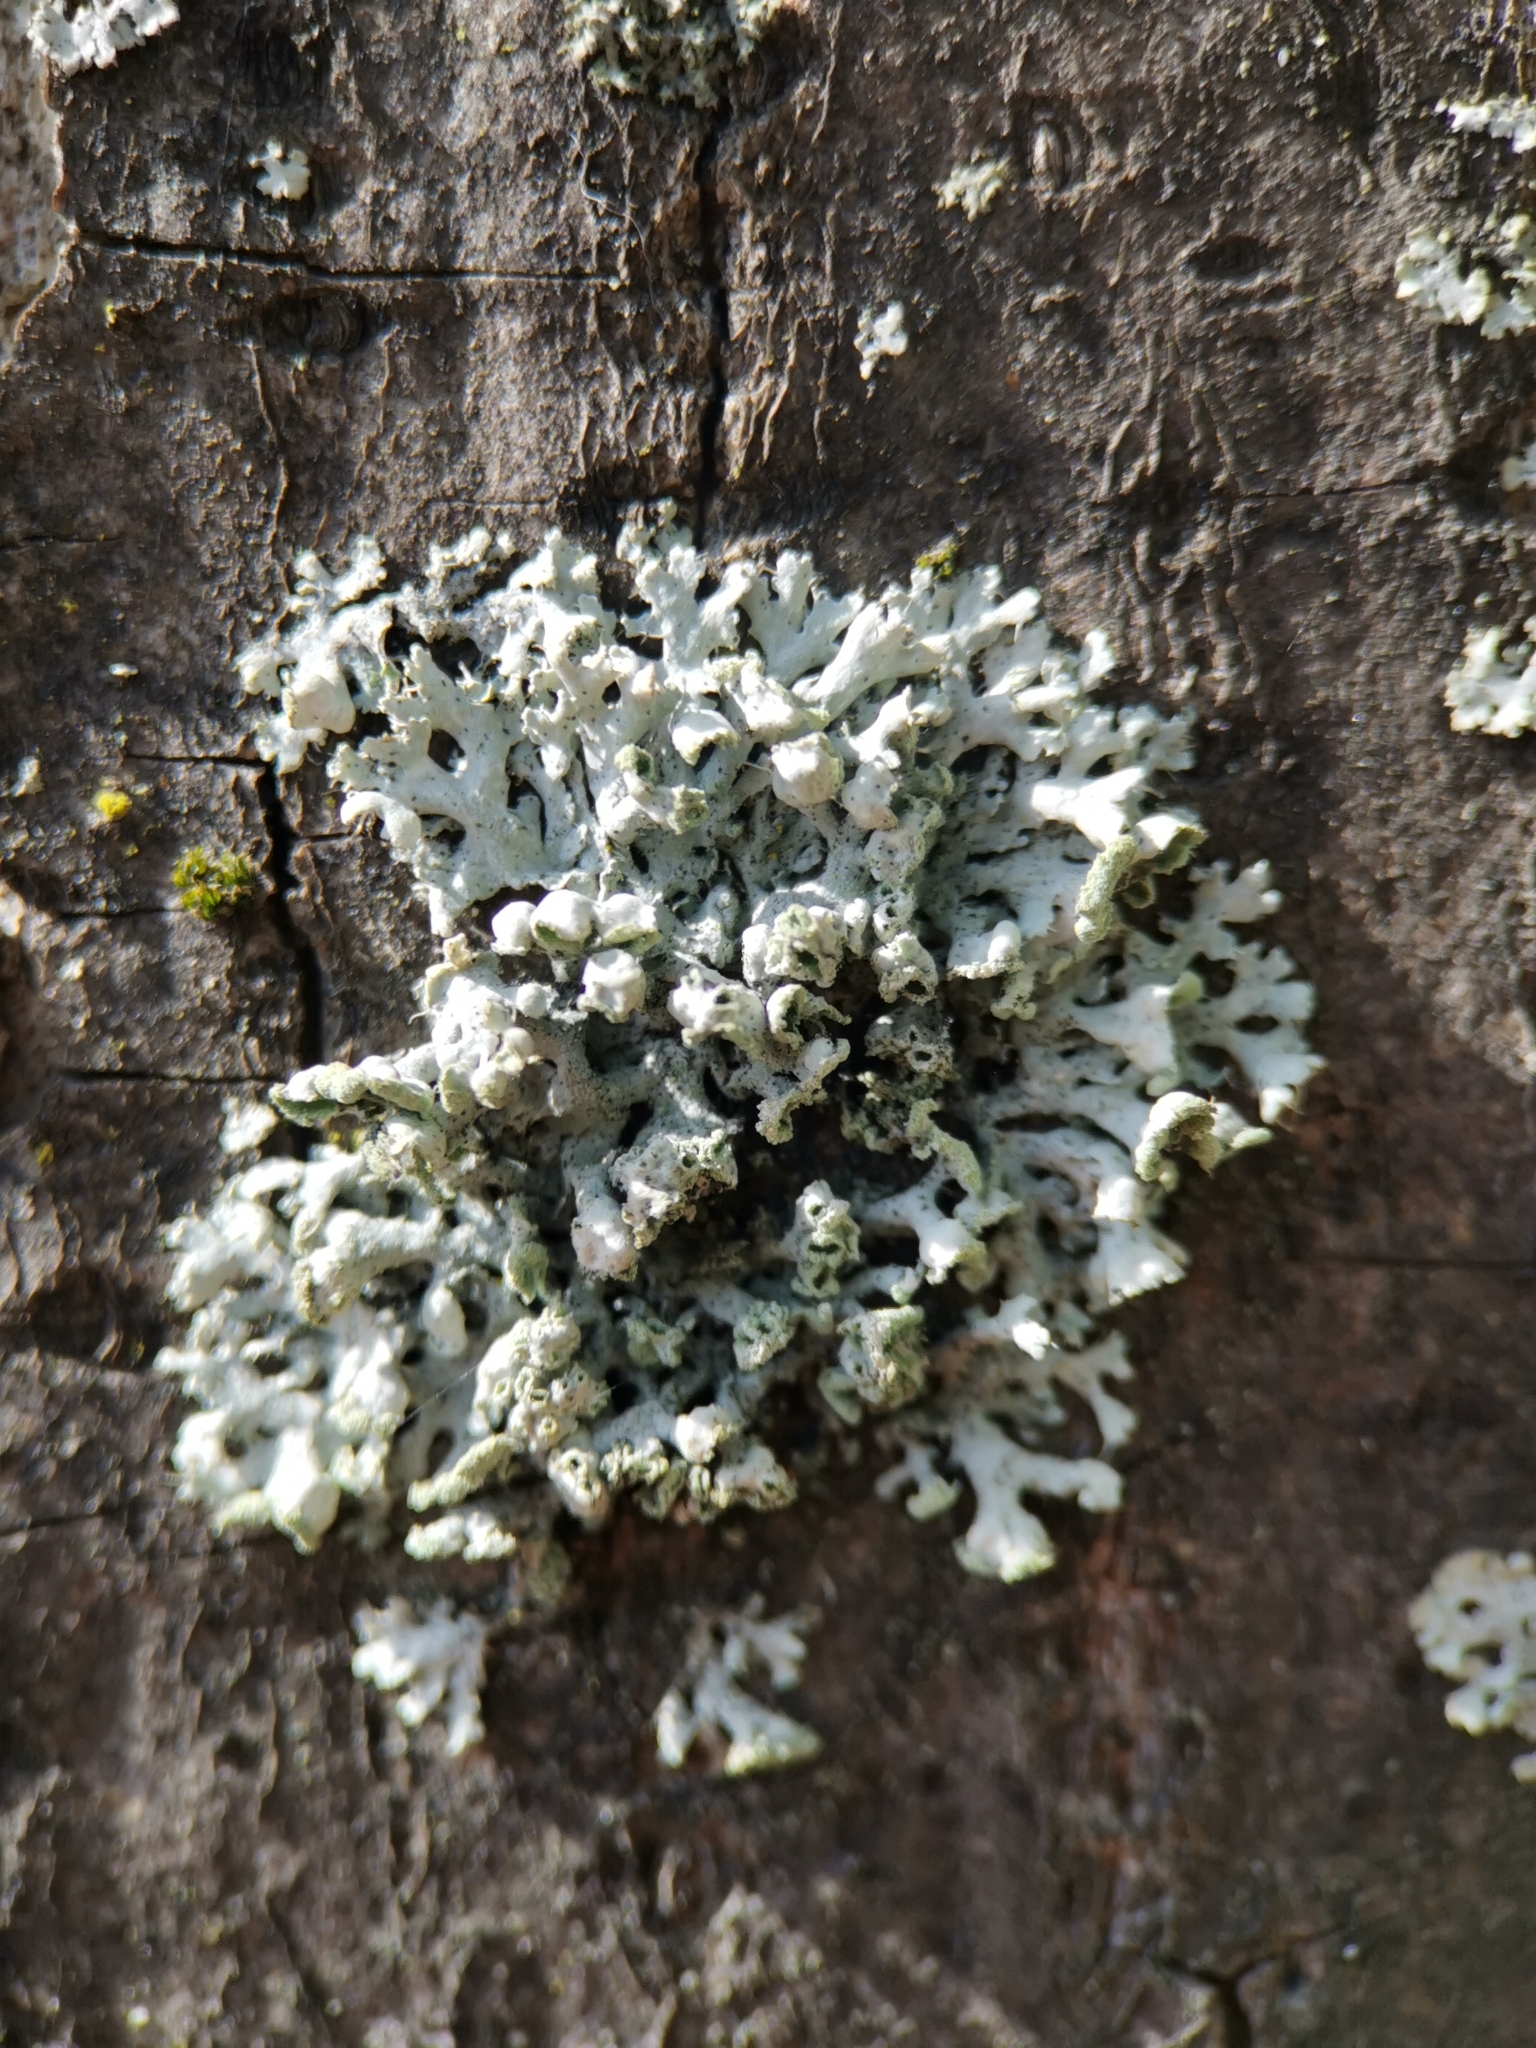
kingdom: Fungi
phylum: Ascomycota
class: Lecanoromycetes
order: Caliciales
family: Physciaceae
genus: Physcia
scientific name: Physcia adscendens
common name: Hooded rosette lichen
